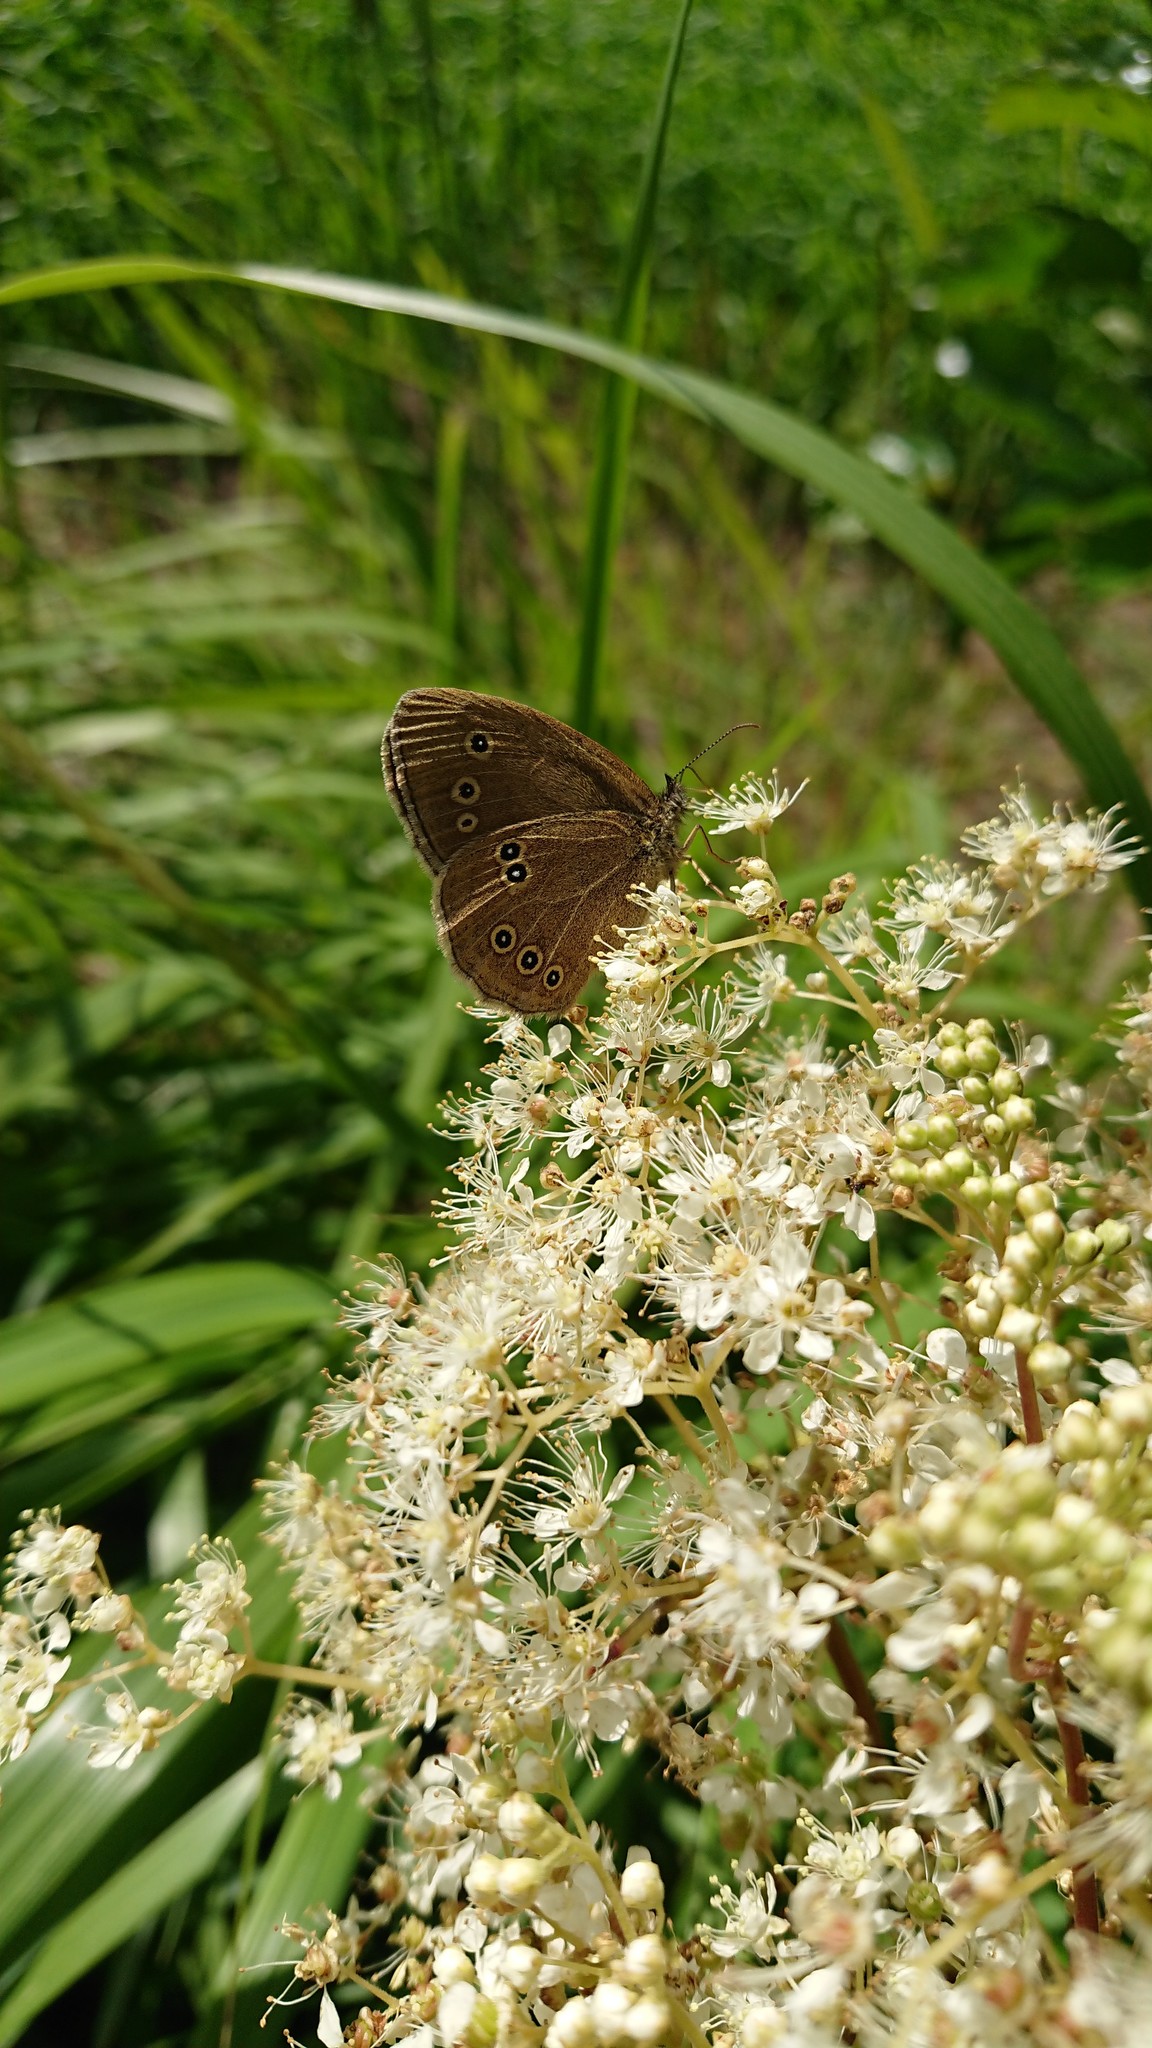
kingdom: Animalia
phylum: Arthropoda
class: Insecta
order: Lepidoptera
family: Nymphalidae
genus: Aphantopus
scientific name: Aphantopus hyperantus
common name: Ringlet
